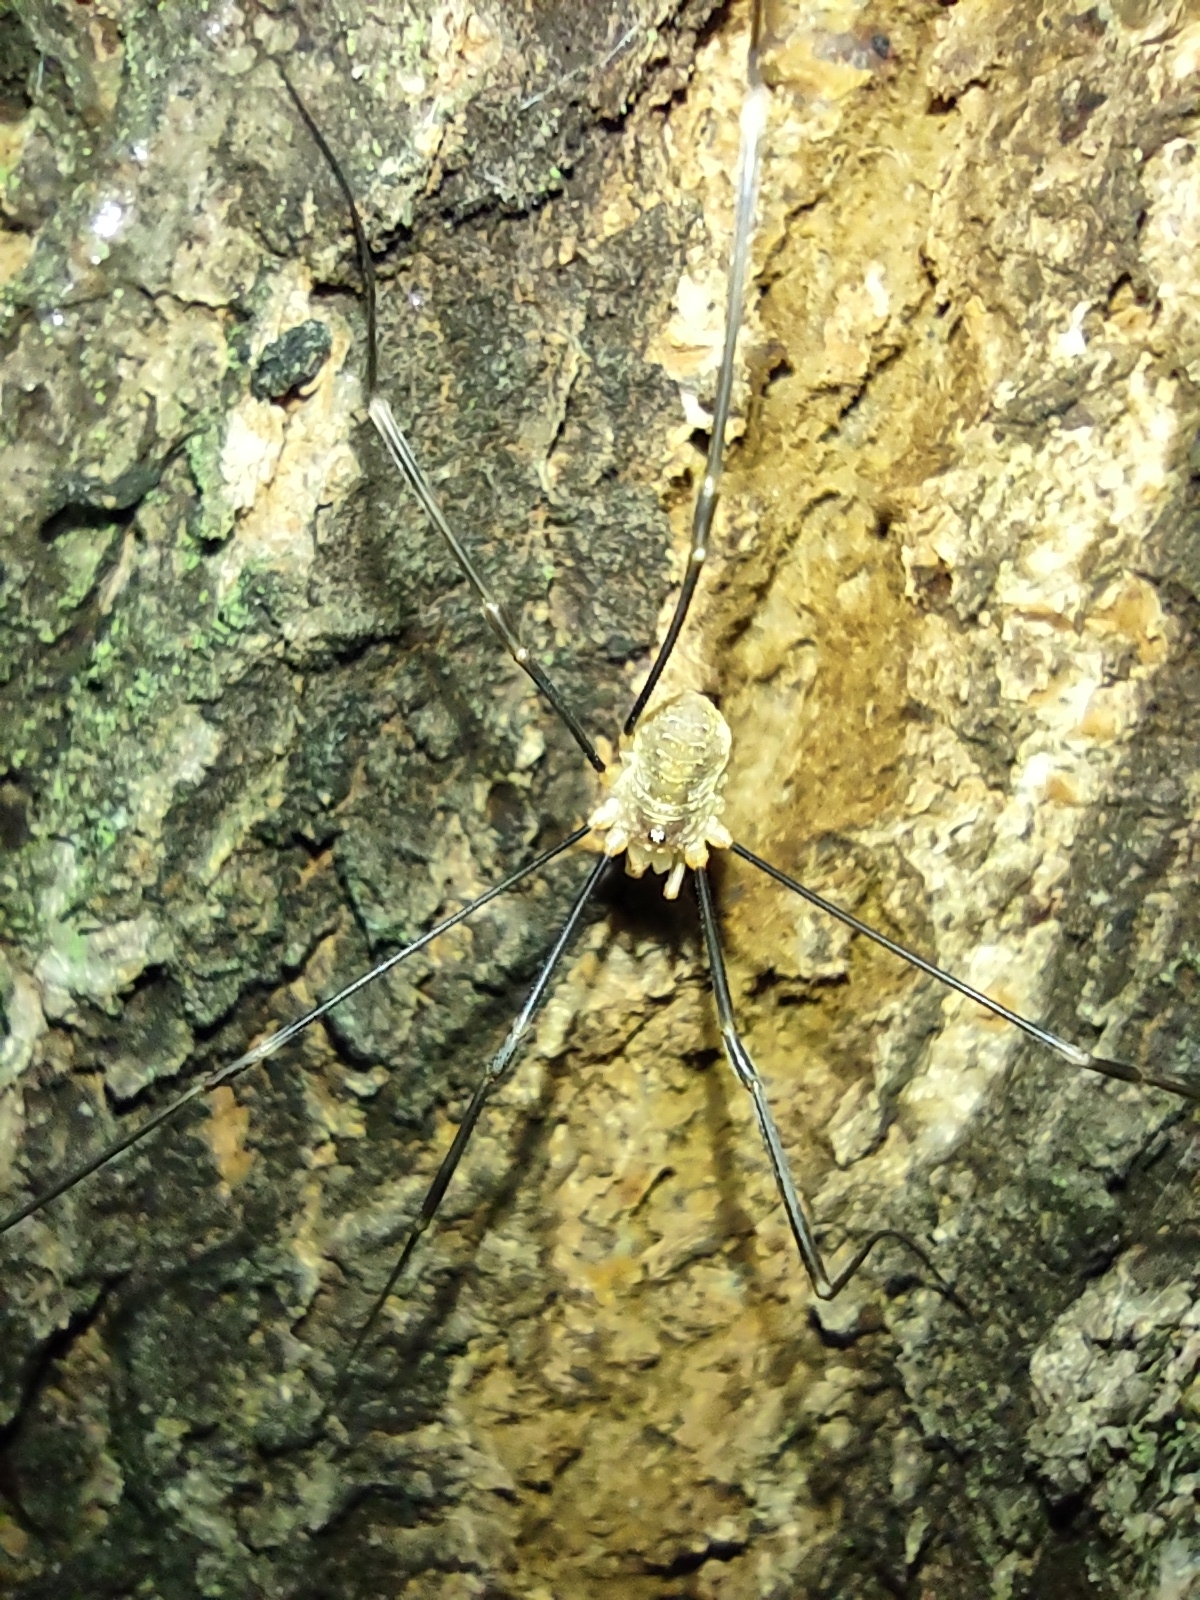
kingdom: Animalia
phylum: Arthropoda
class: Arachnida
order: Opiliones
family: Phalangiidae
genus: Opilio
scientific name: Opilio canestrinii
